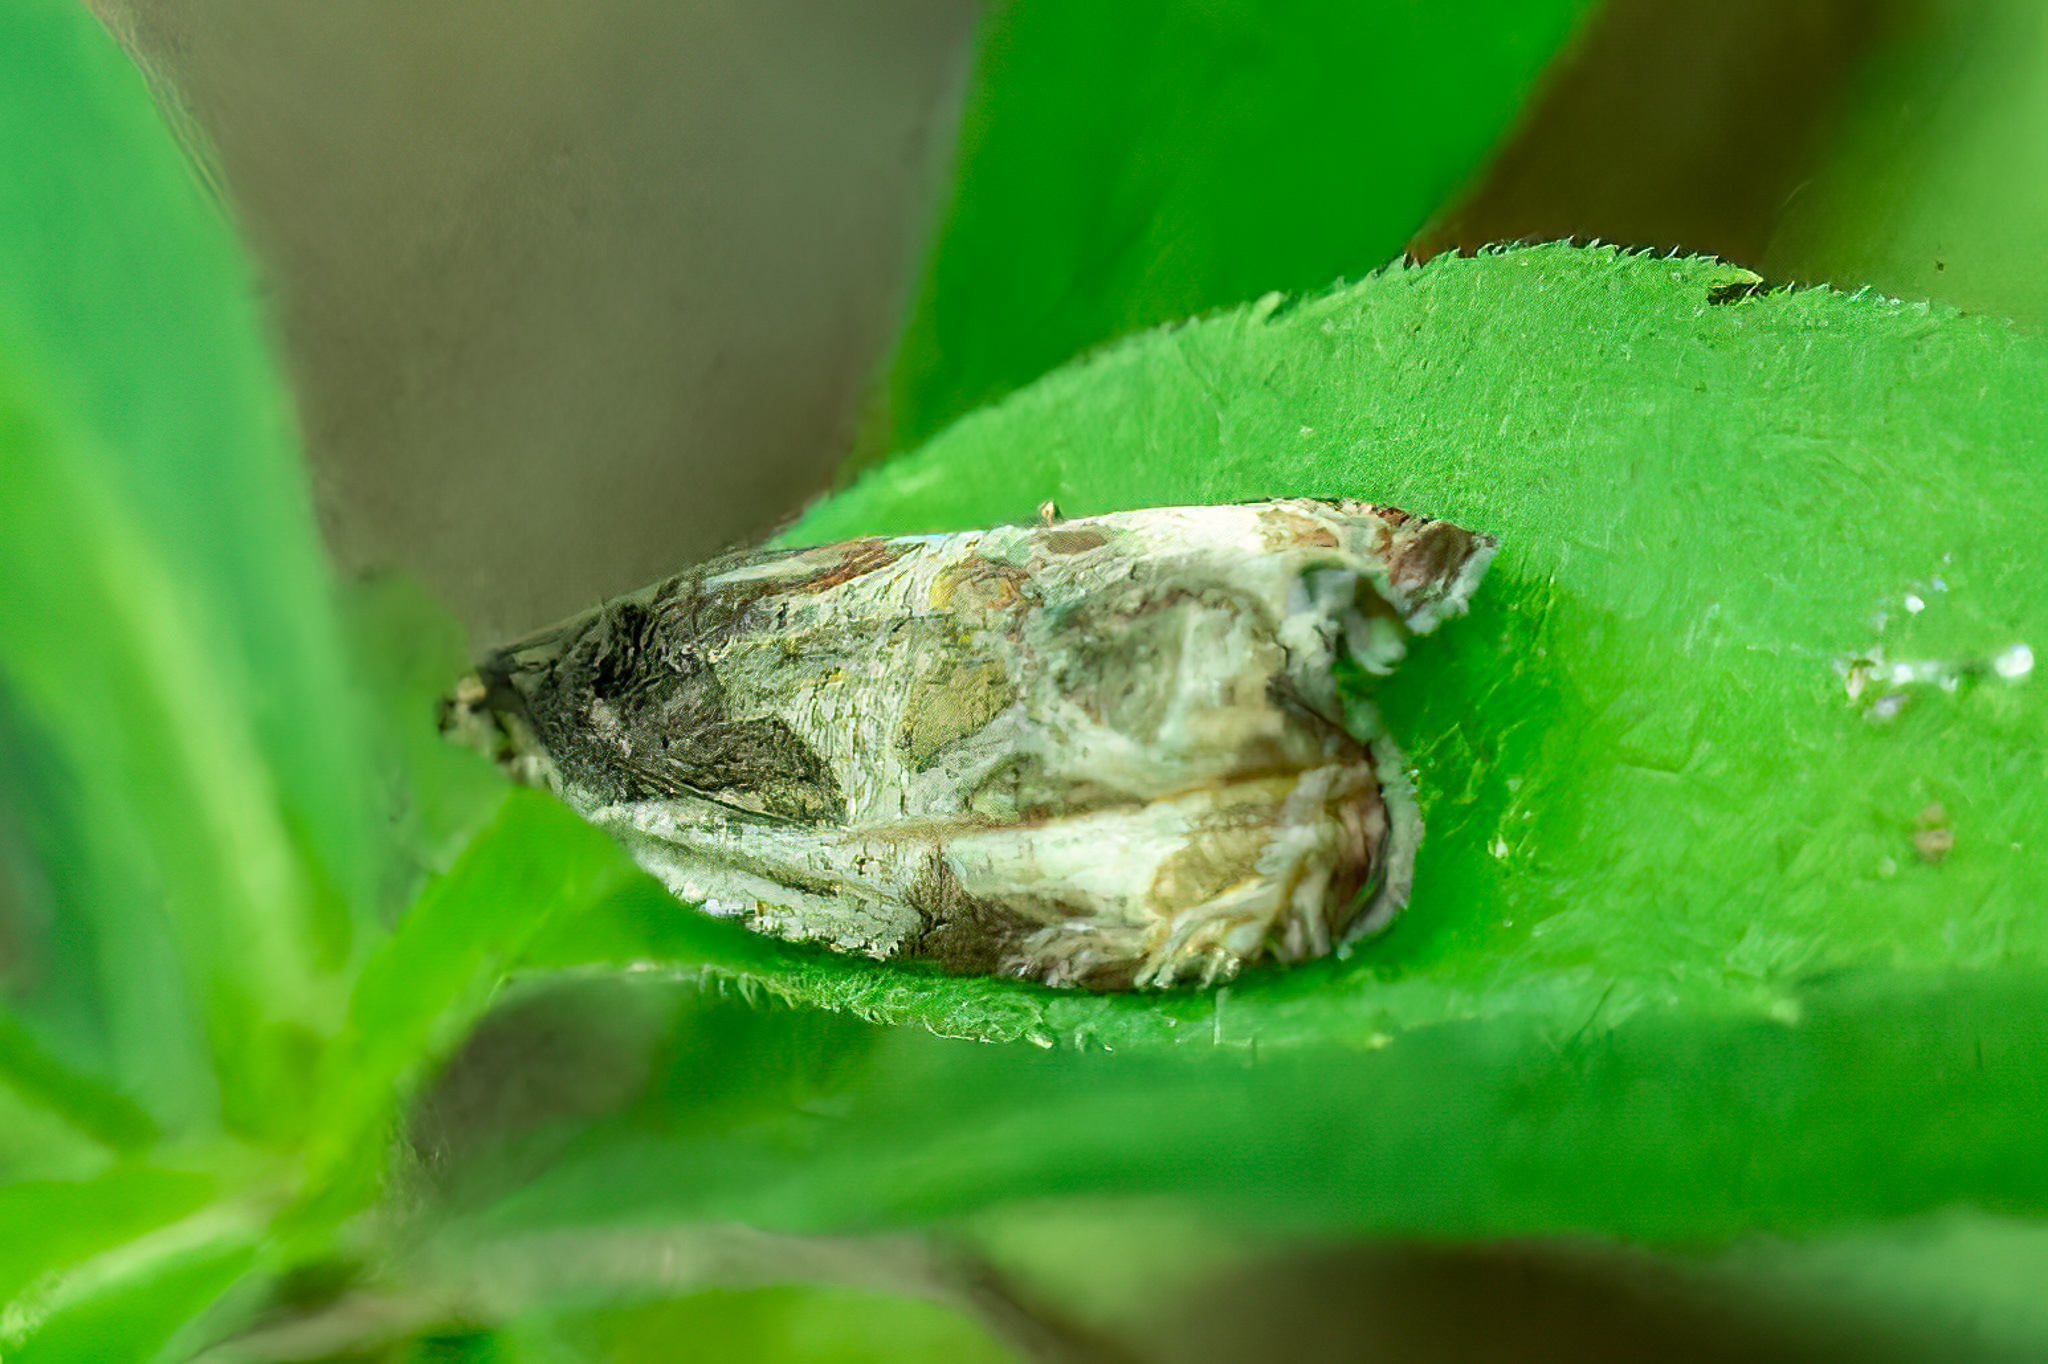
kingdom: Animalia
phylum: Arthropoda
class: Insecta
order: Lepidoptera
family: Tortricidae
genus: Olethreutes
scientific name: Olethreutes connectum
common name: Bunchberry leaffolder moth
